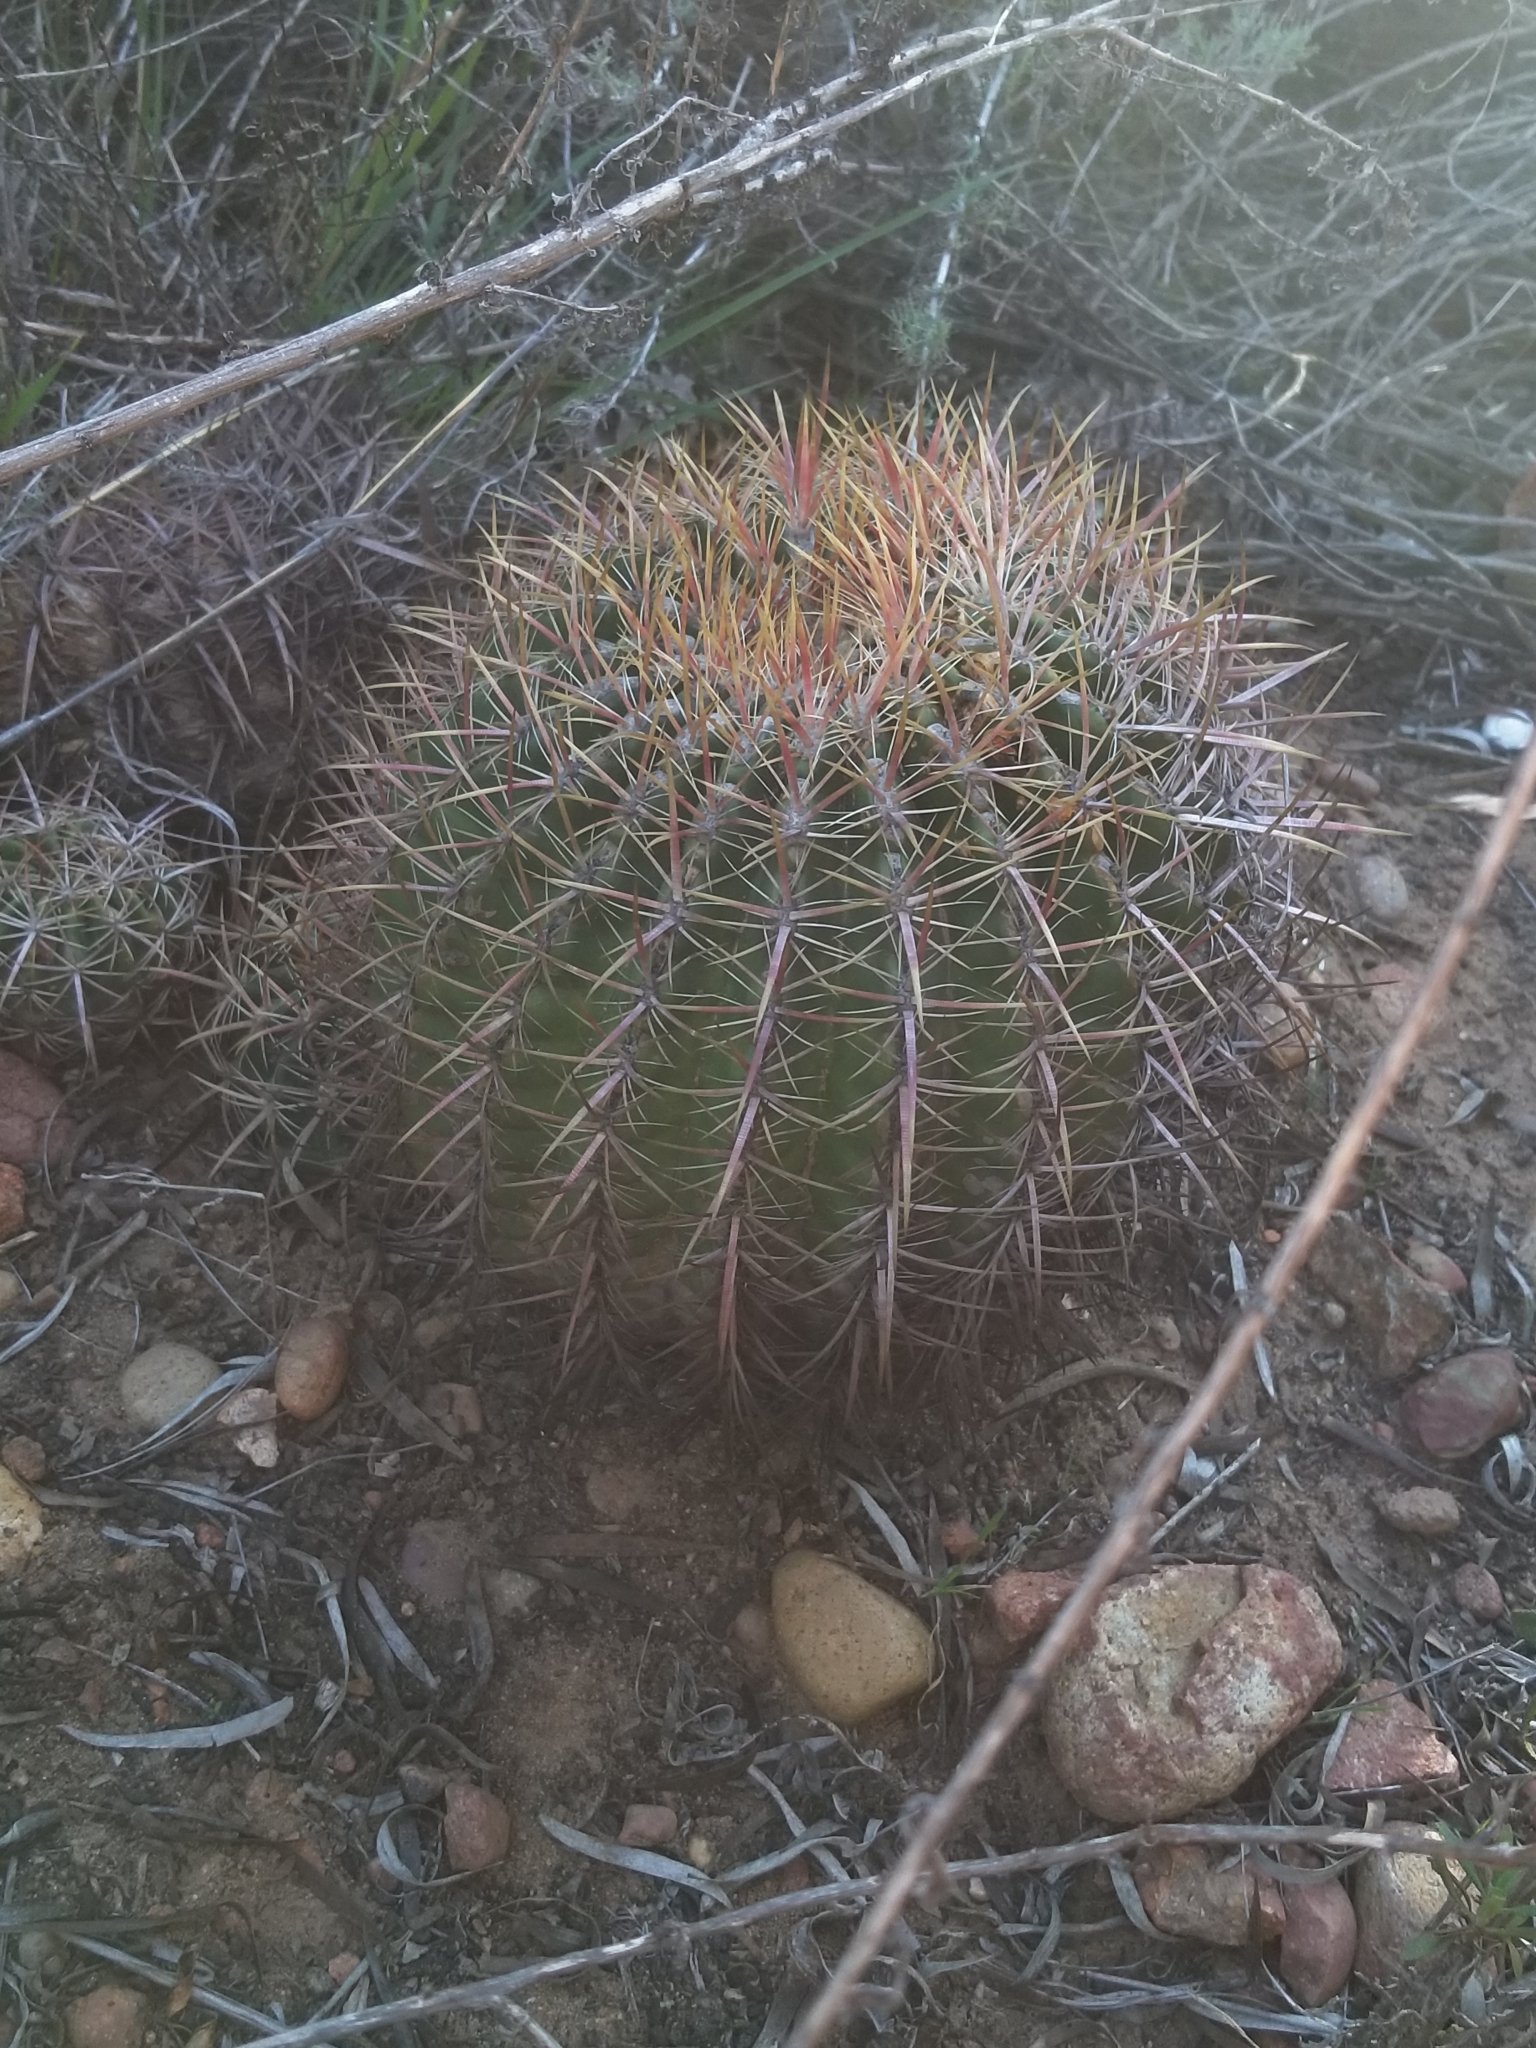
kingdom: Plantae
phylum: Tracheophyta
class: Magnoliopsida
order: Caryophyllales
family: Cactaceae
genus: Ferocactus
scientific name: Ferocactus viridescens
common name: San diego barrel cactus
